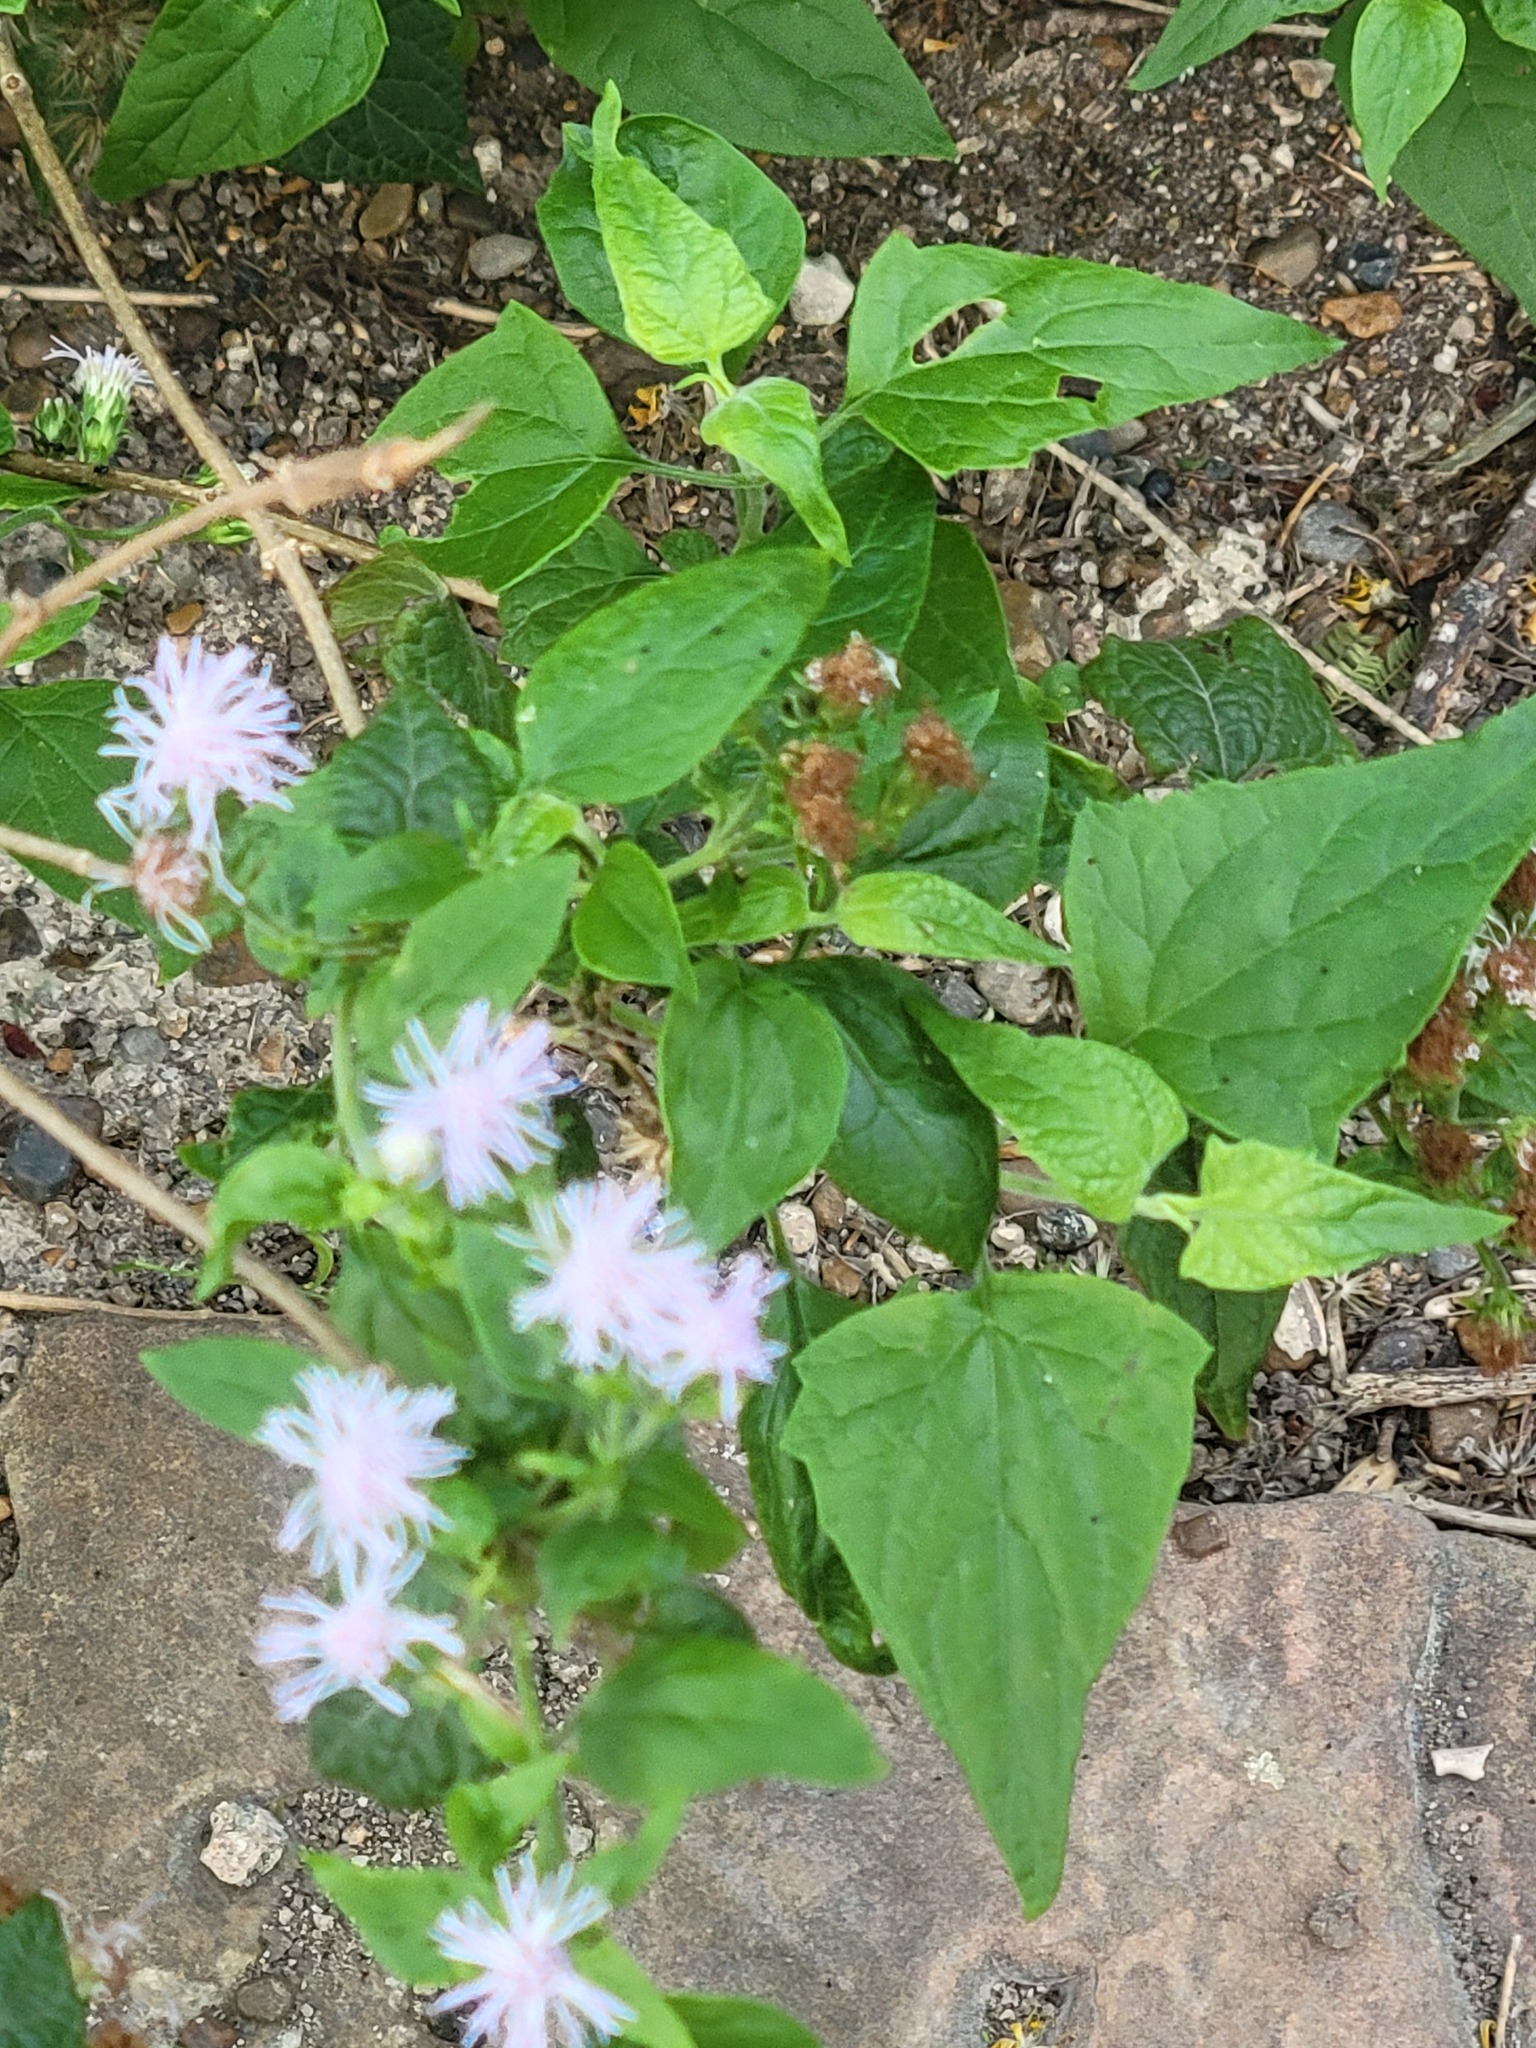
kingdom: Plantae
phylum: Tracheophyta
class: Magnoliopsida
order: Asterales
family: Asteraceae
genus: Chromolaena
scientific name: Chromolaena odorata
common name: Siamweed
